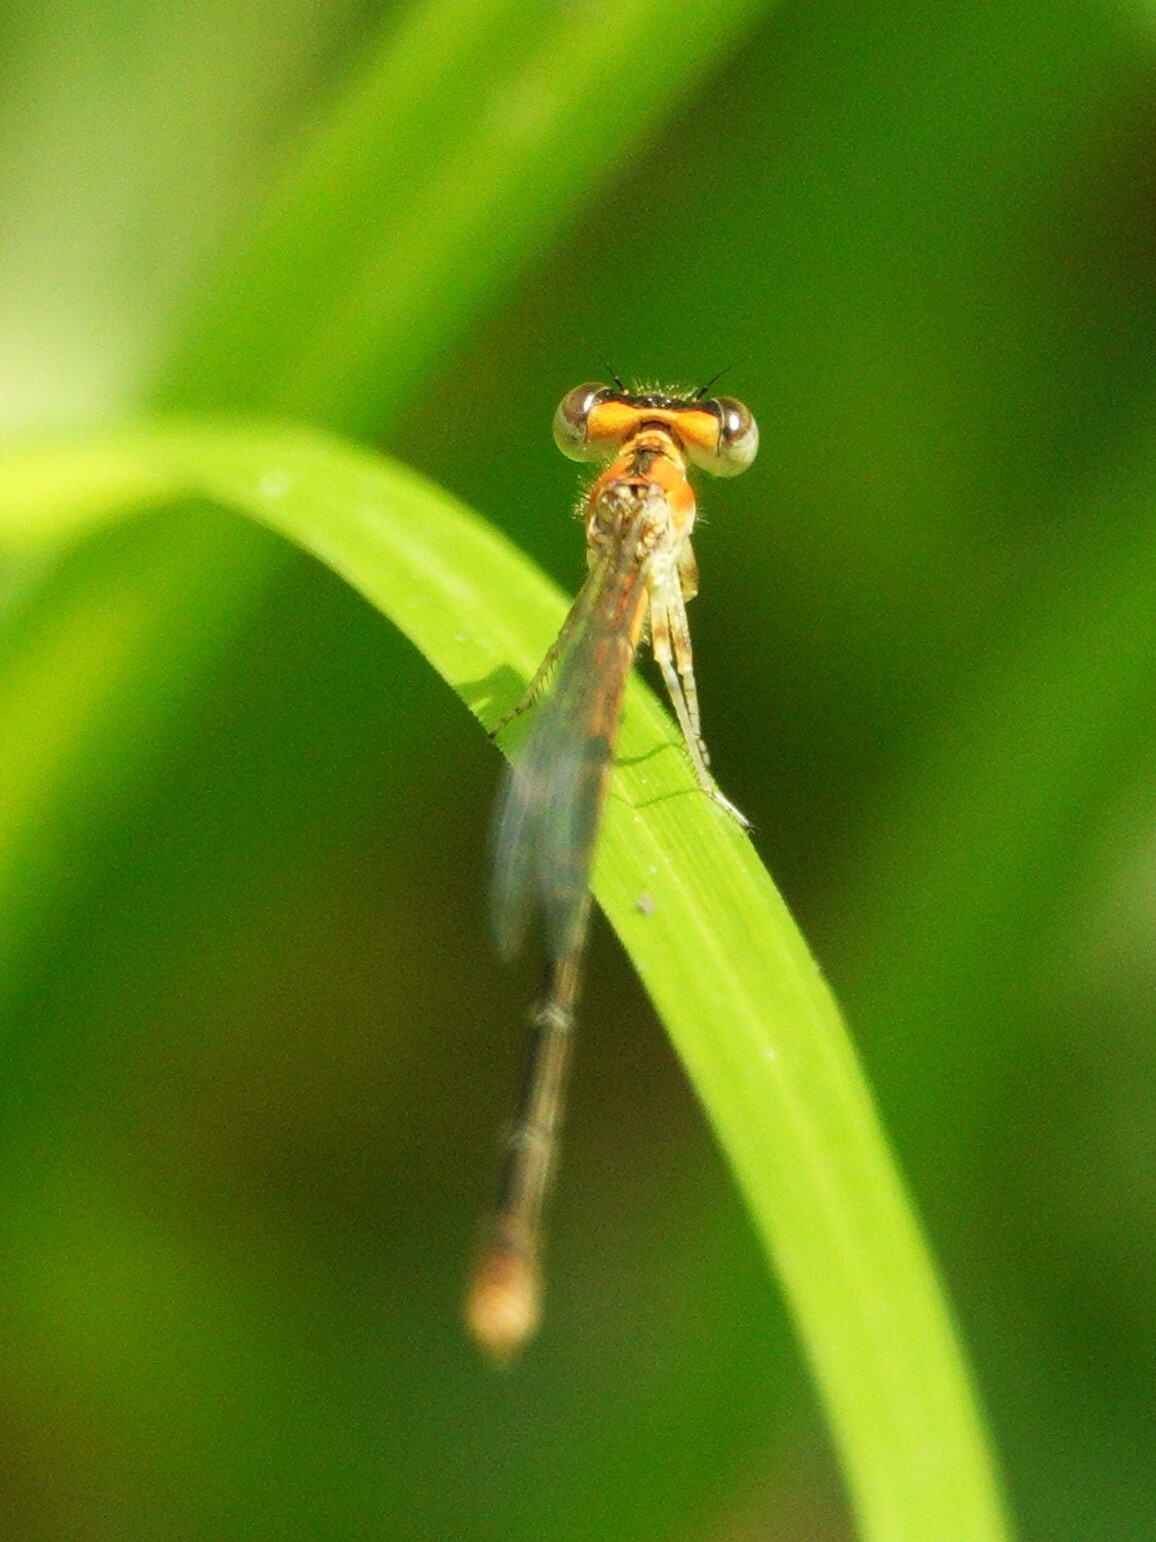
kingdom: Animalia
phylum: Arthropoda
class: Insecta
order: Odonata
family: Coenagrionidae
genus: Ischnura
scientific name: Ischnura prognata
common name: Furtive forktail
